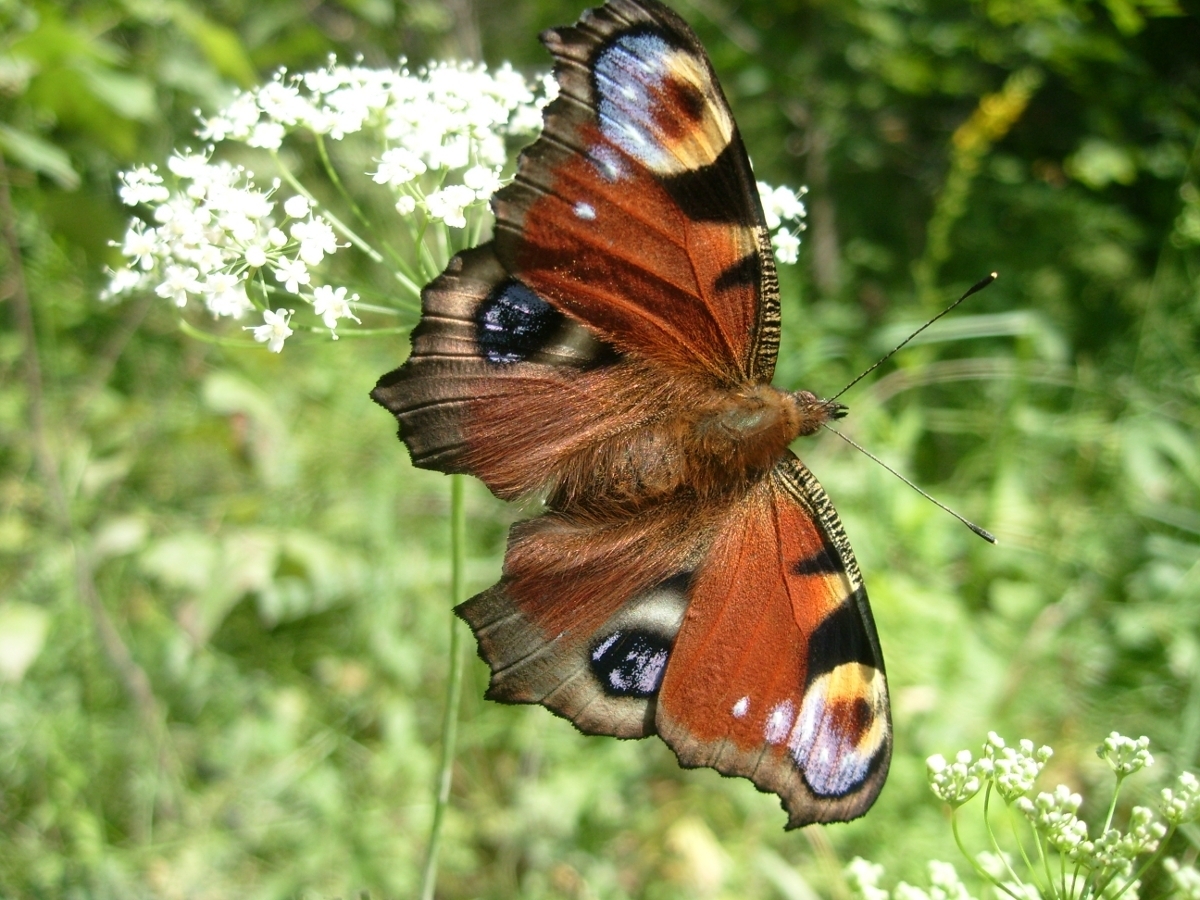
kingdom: Animalia
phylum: Arthropoda
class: Insecta
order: Lepidoptera
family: Nymphalidae
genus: Aglais
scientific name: Aglais io
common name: Peacock
